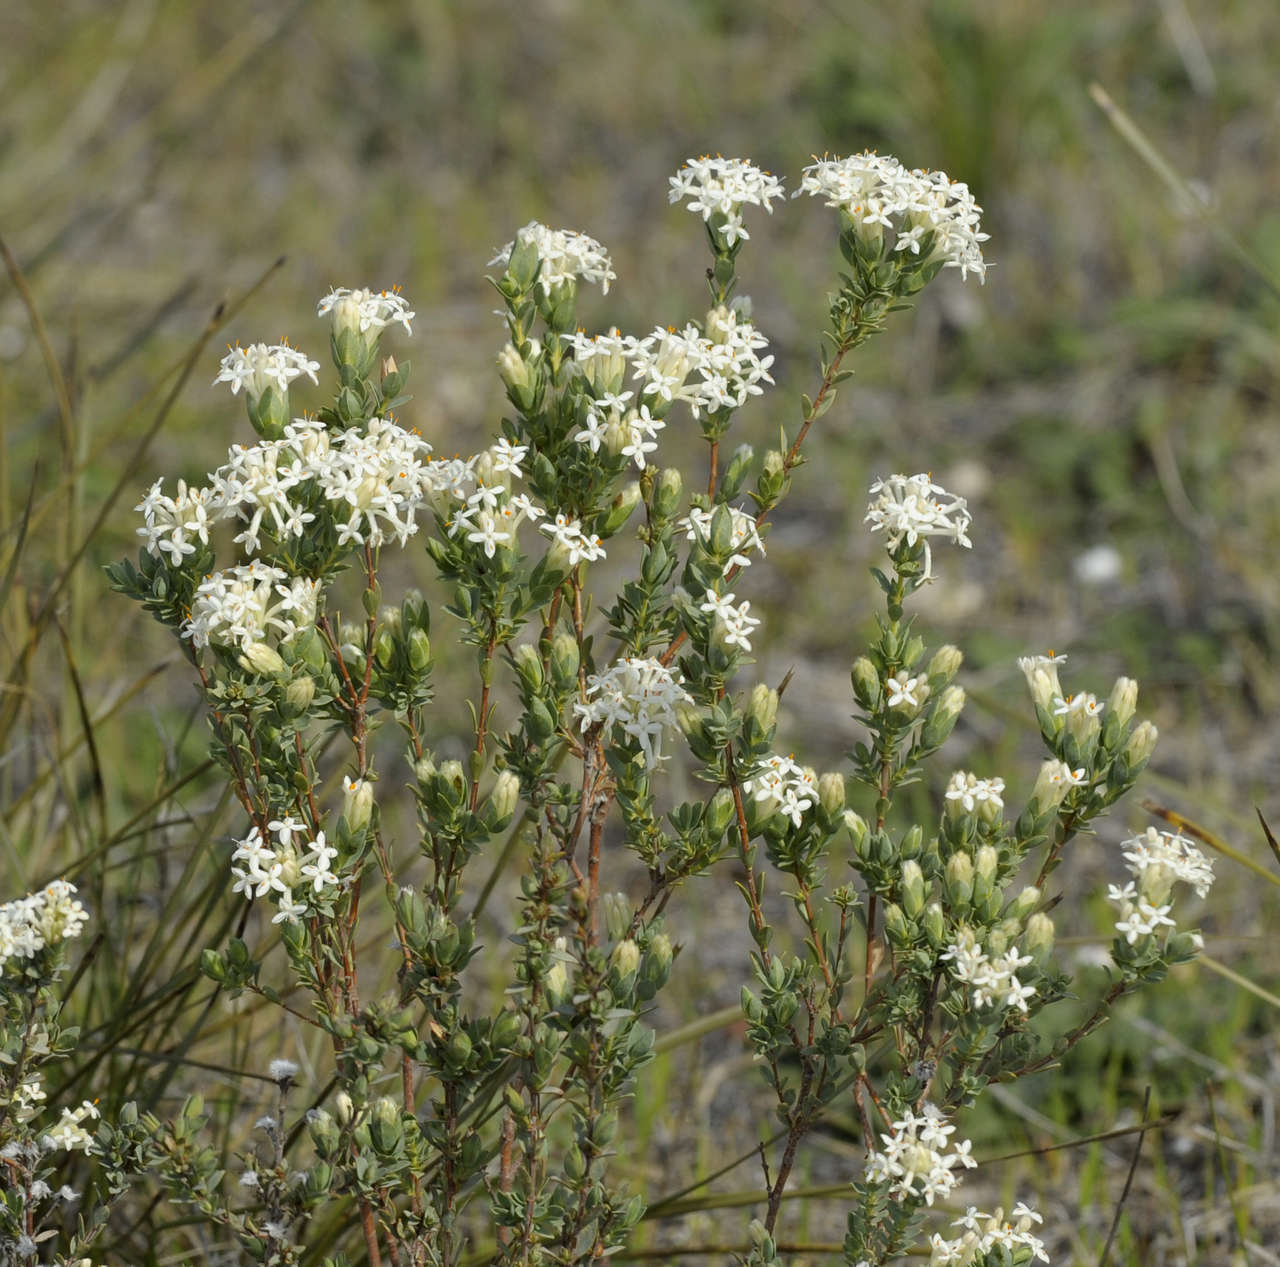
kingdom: Plantae
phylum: Tracheophyta
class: Magnoliopsida
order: Malvales
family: Thymelaeaceae
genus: Pimelea
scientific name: Pimelea glauca
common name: Smooth riceflower
